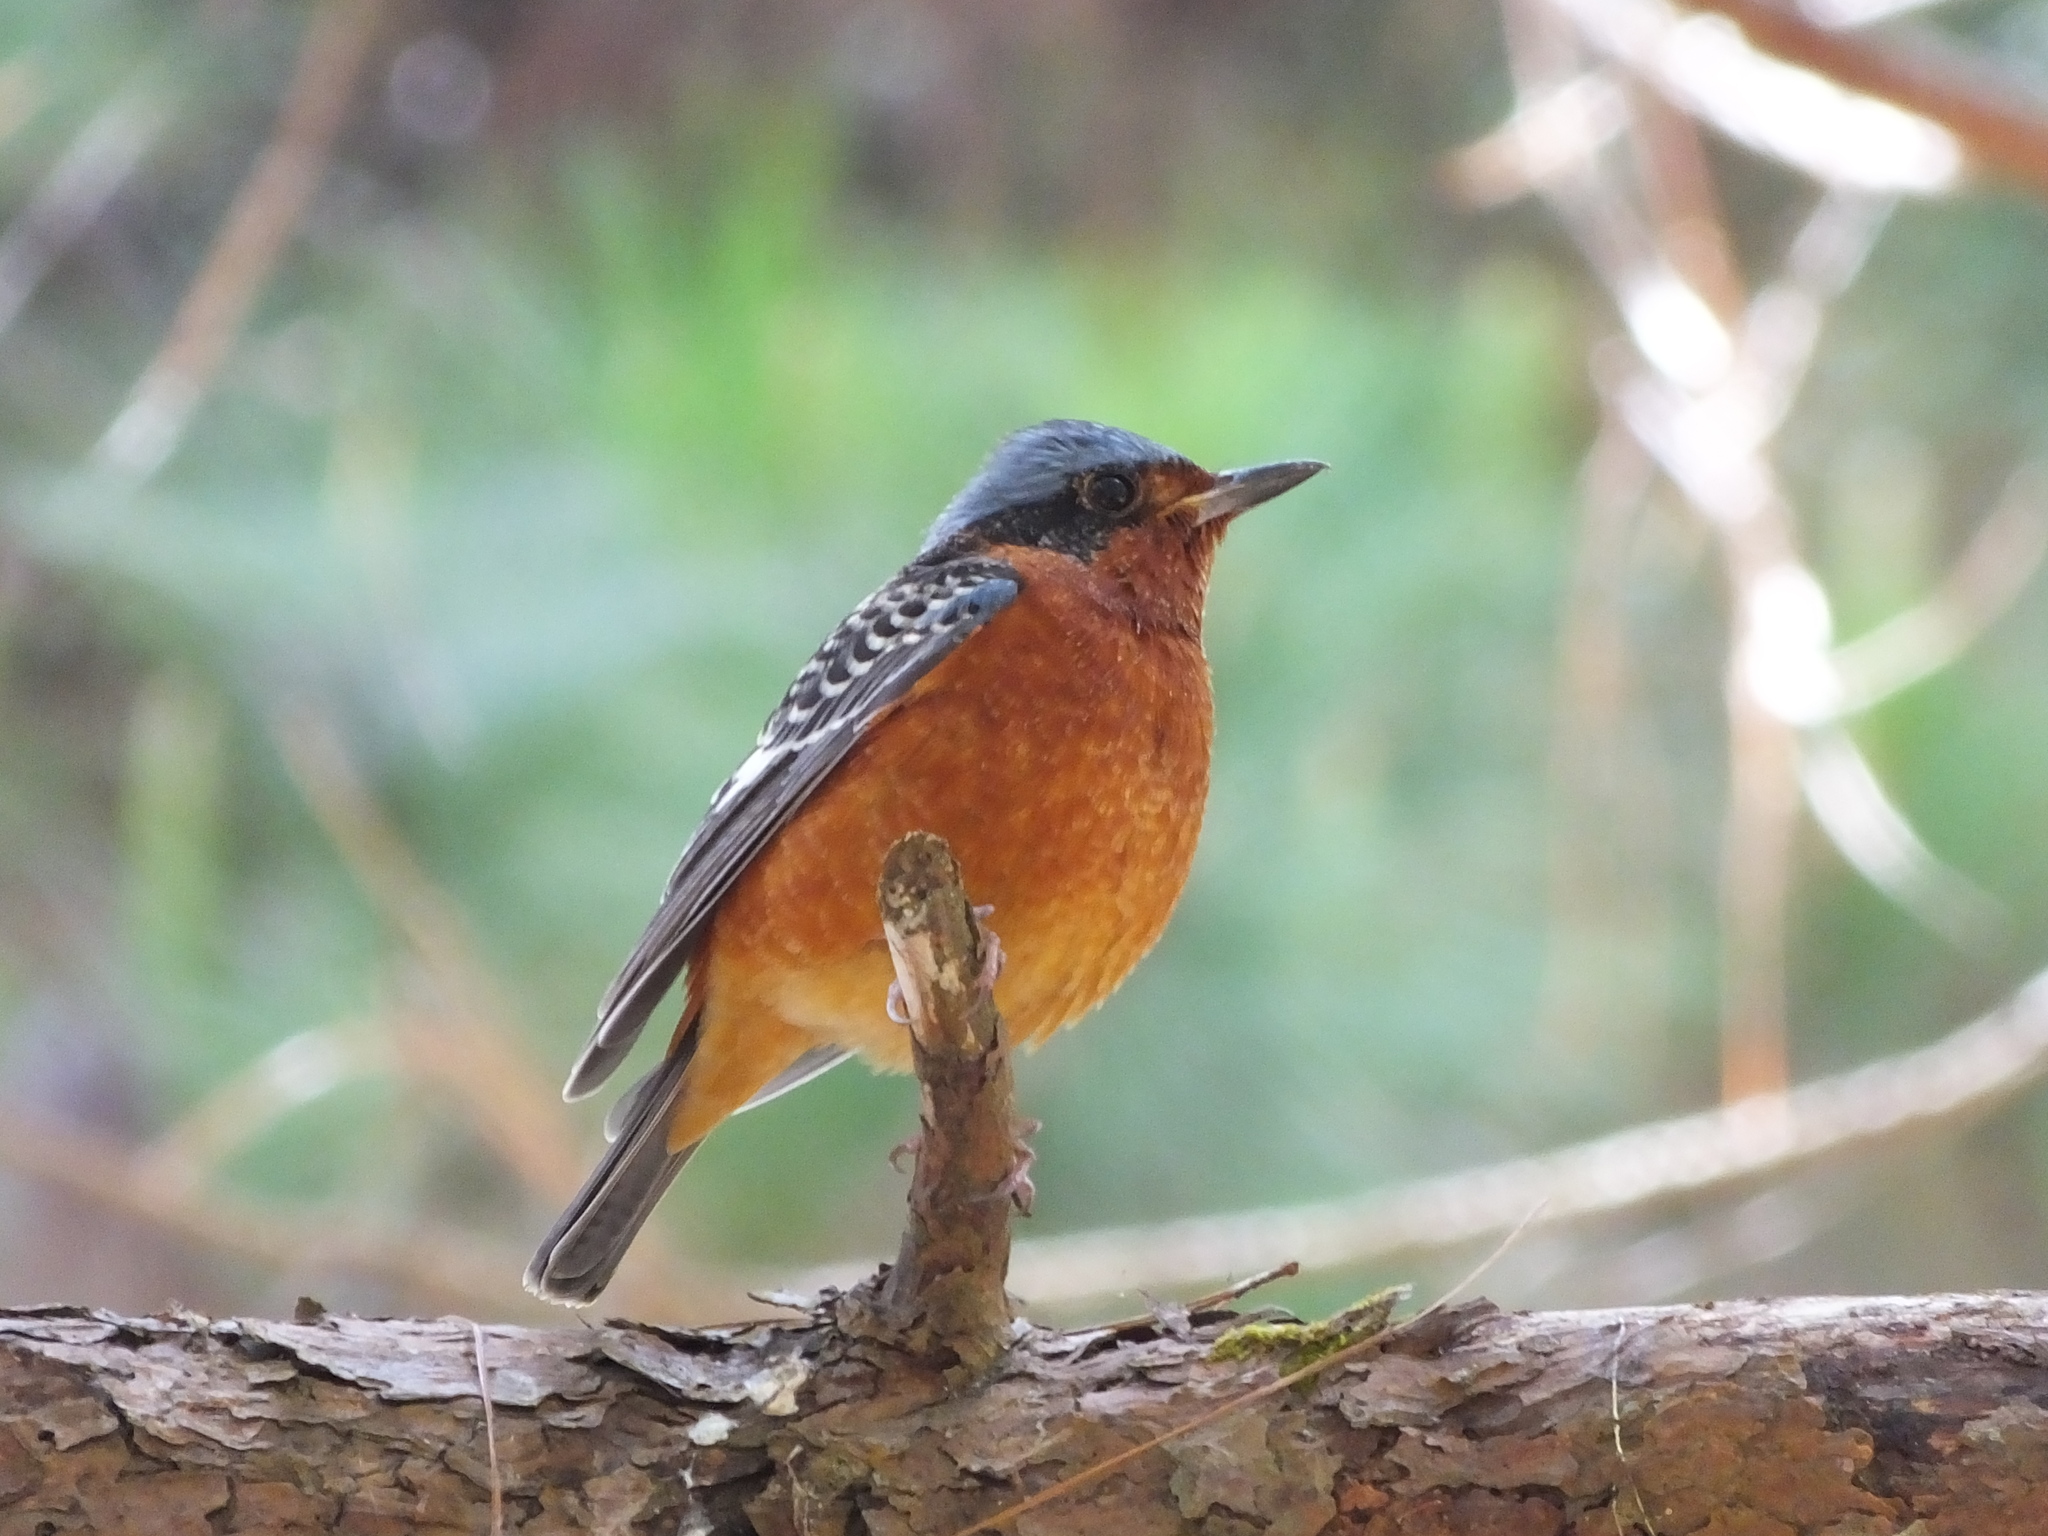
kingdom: Animalia
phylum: Chordata
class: Aves
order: Passeriformes
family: Muscicapidae
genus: Monticola
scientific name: Monticola gularis
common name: White-throated rock thrush
